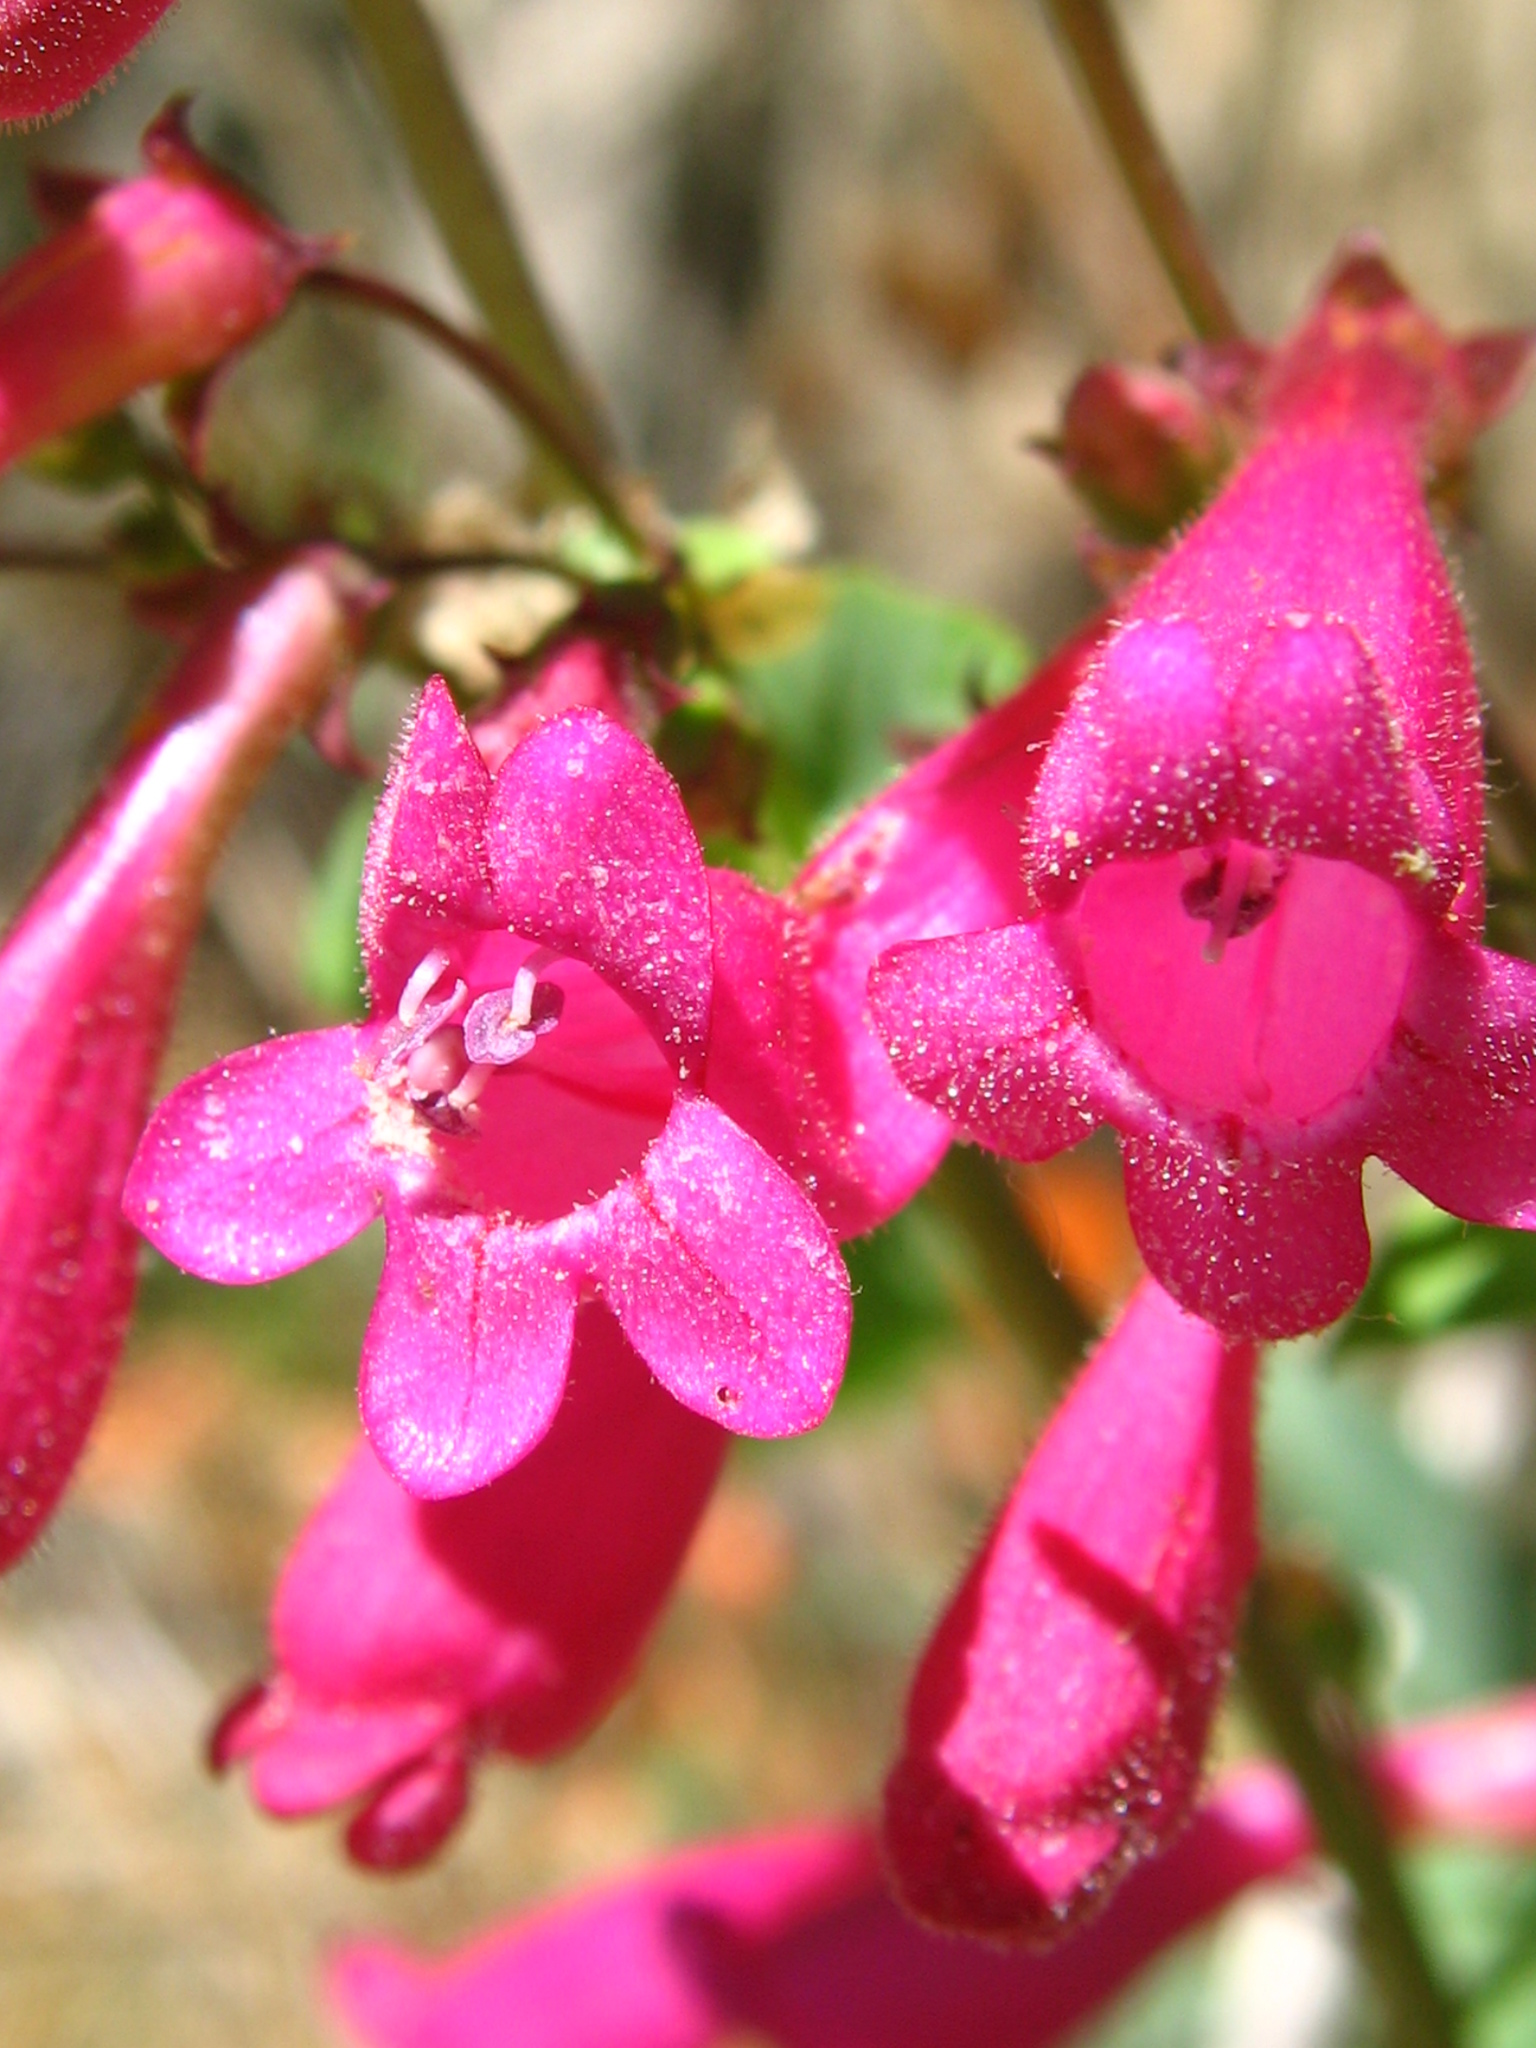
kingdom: Plantae
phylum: Tracheophyta
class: Magnoliopsida
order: Lamiales
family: Plantaginaceae
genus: Penstemon
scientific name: Penstemon pseudospectabilis
